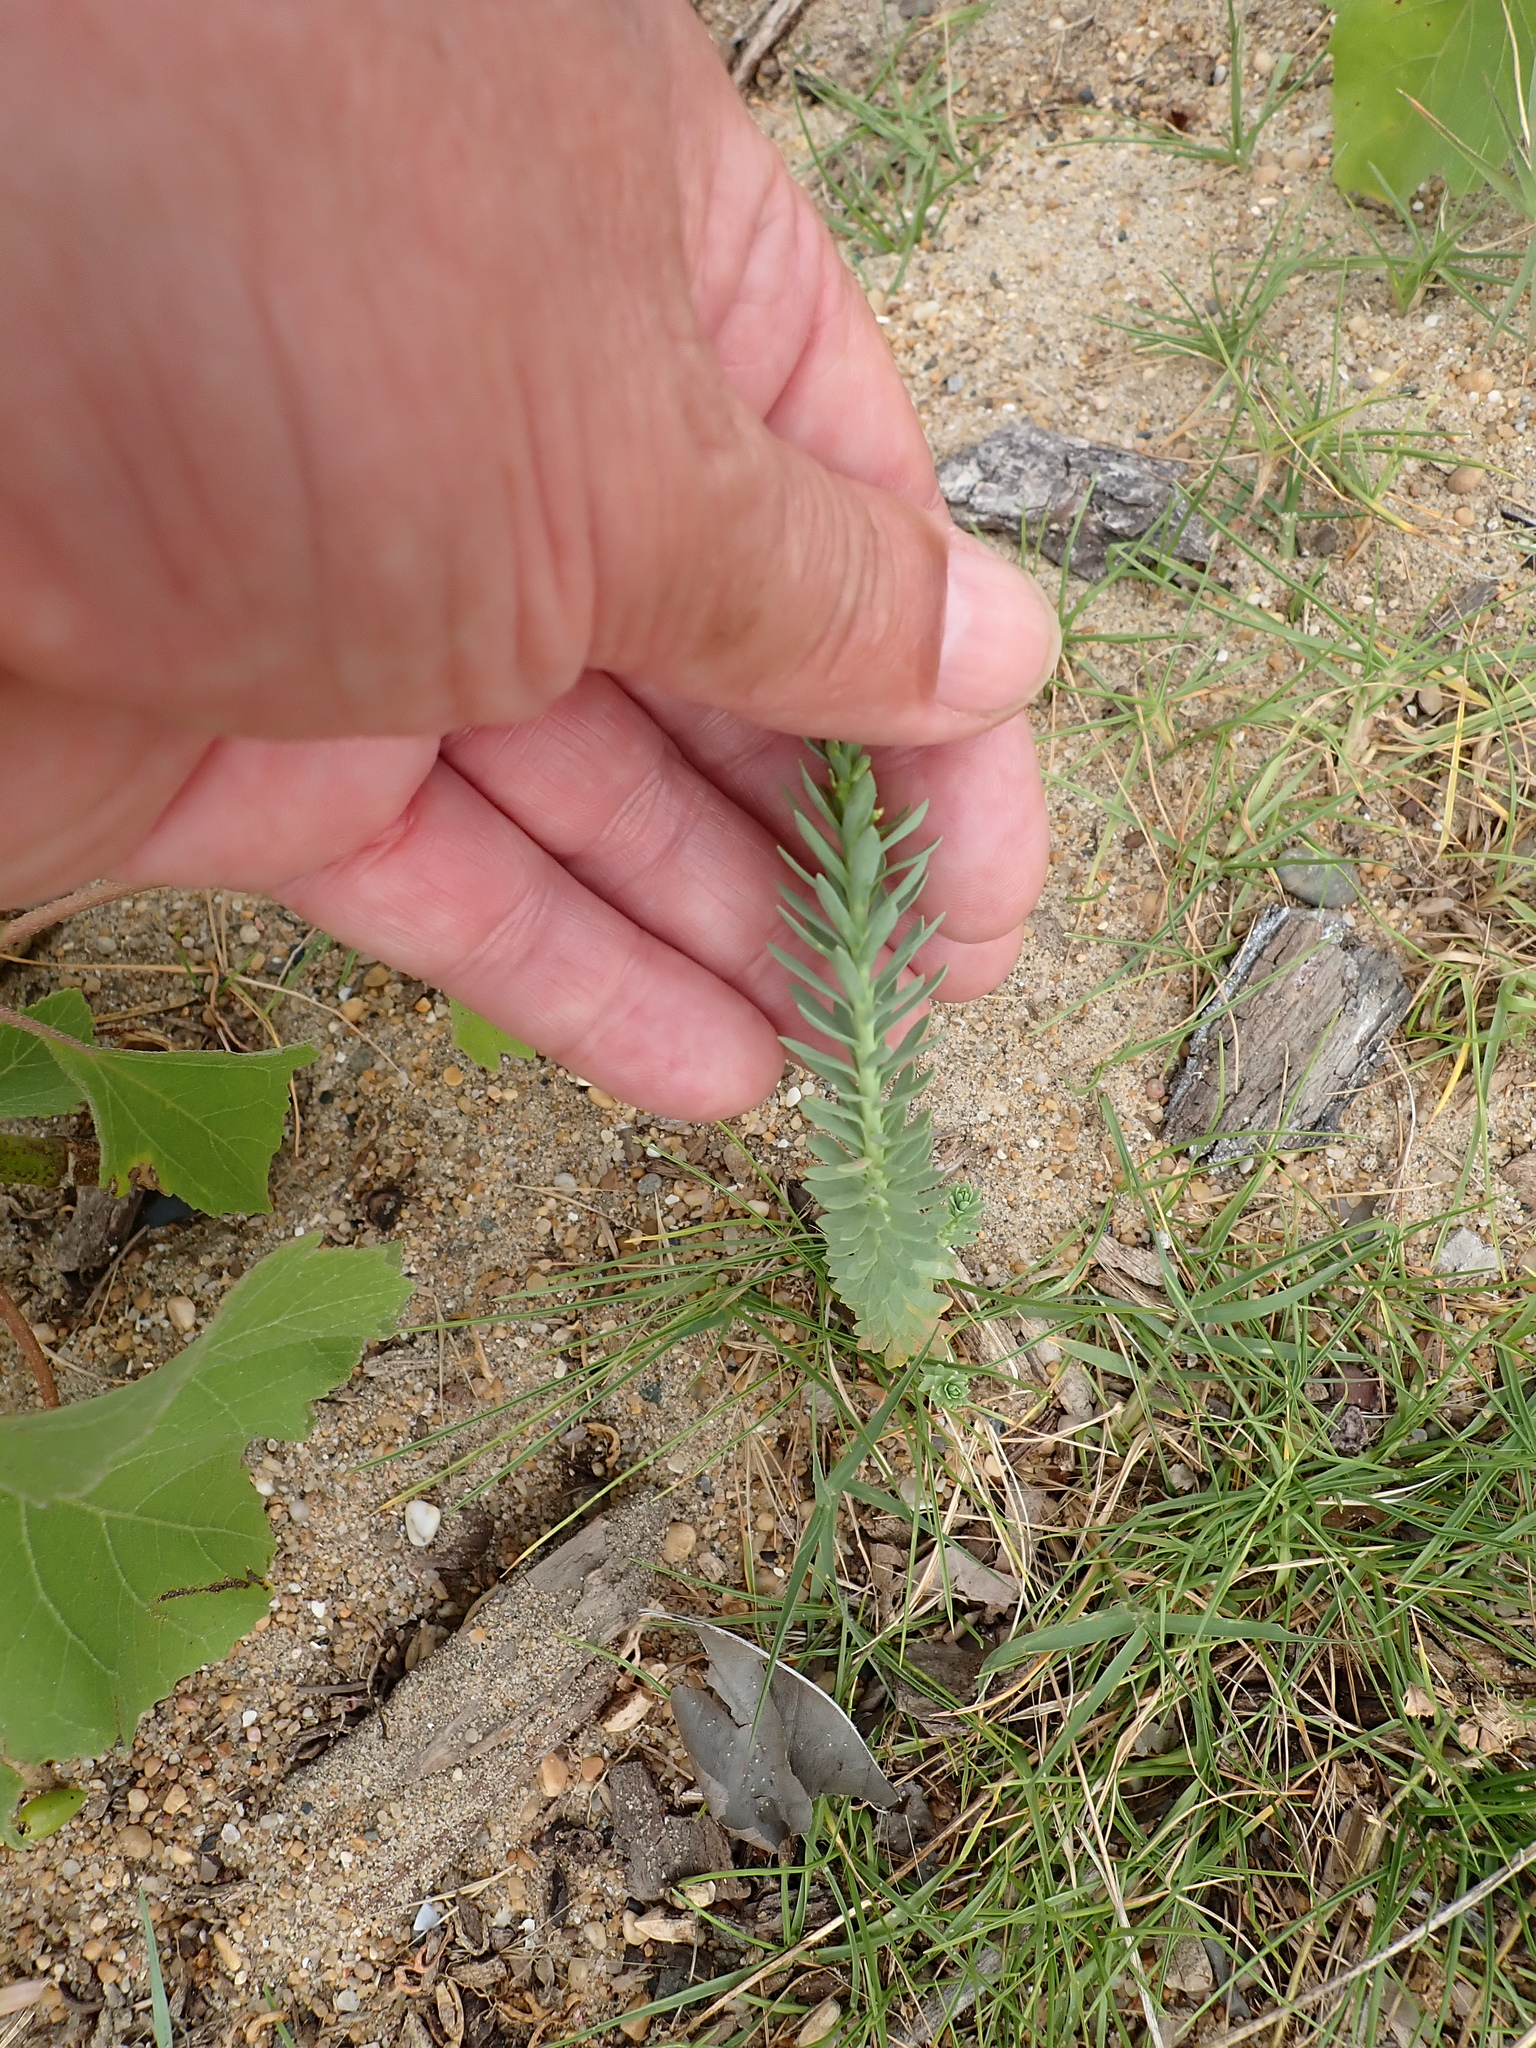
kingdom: Plantae
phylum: Tracheophyta
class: Magnoliopsida
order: Malpighiales
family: Euphorbiaceae
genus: Euphorbia
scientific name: Euphorbia paralias
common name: Sea spurge
